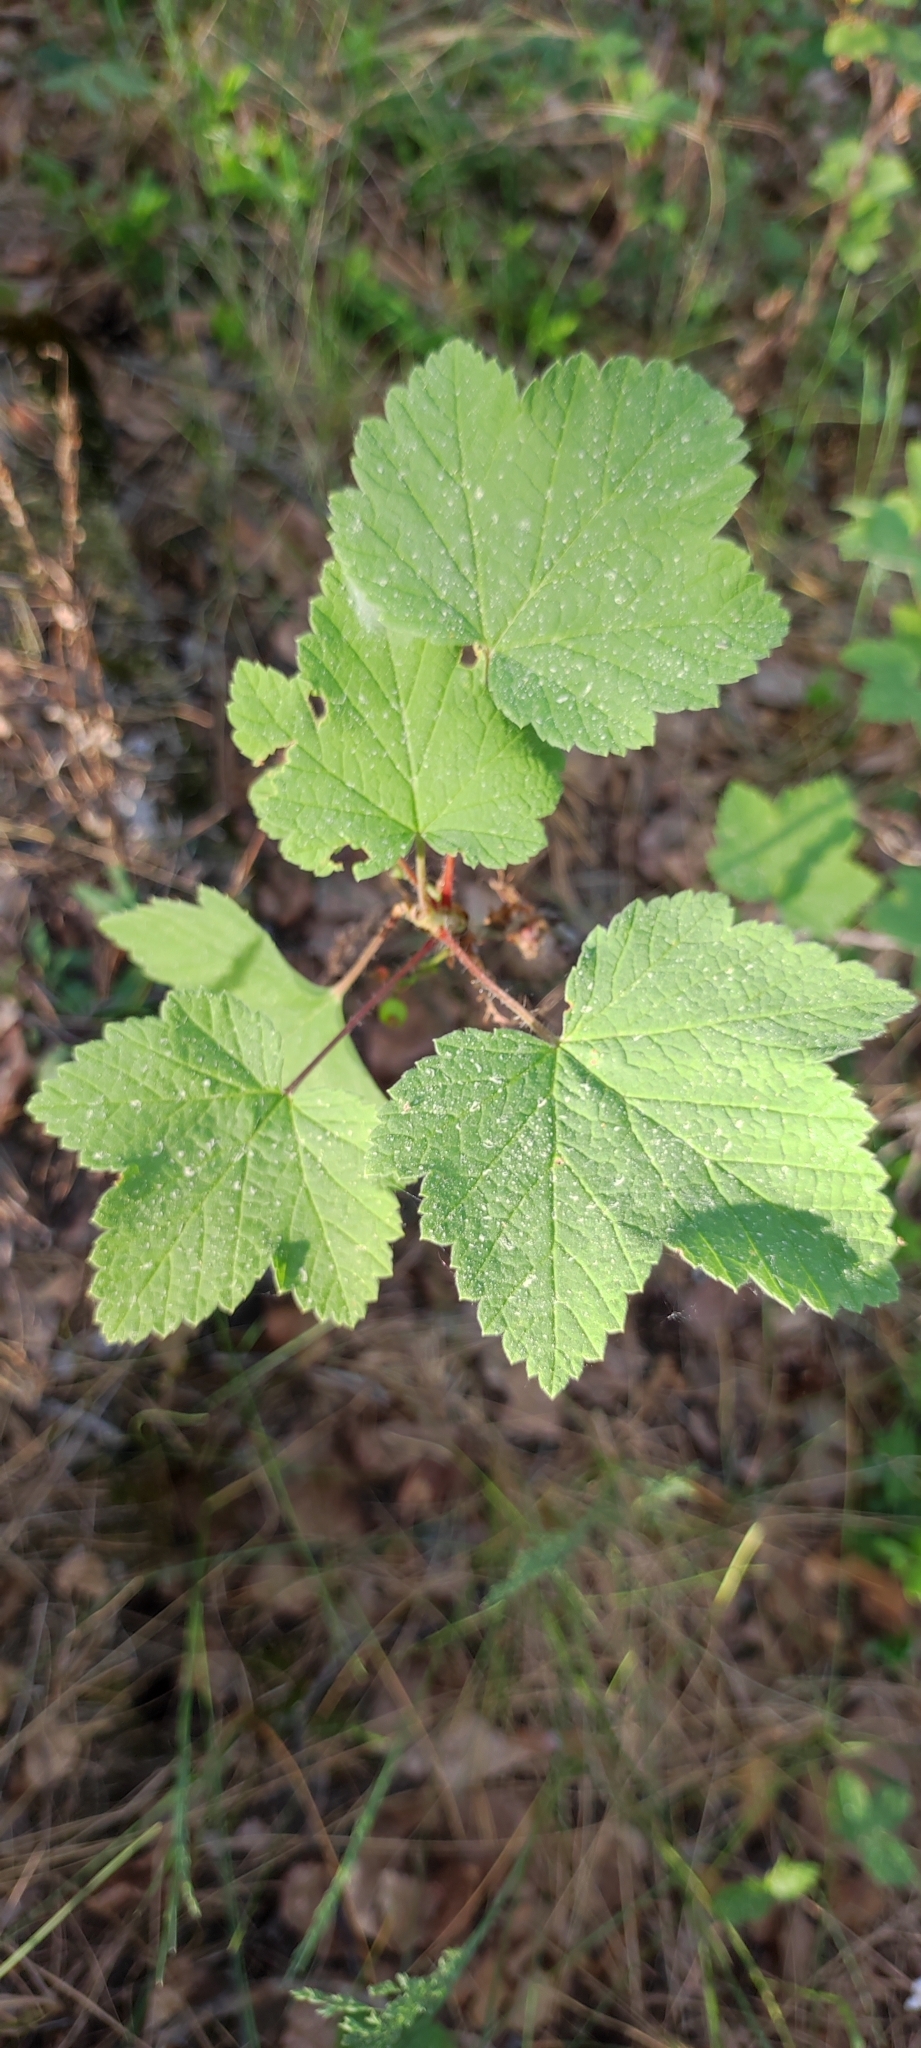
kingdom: Plantae
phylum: Tracheophyta
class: Magnoliopsida
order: Saxifragales
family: Grossulariaceae
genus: Ribes
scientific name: Ribes spicatum
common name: Downy currant
